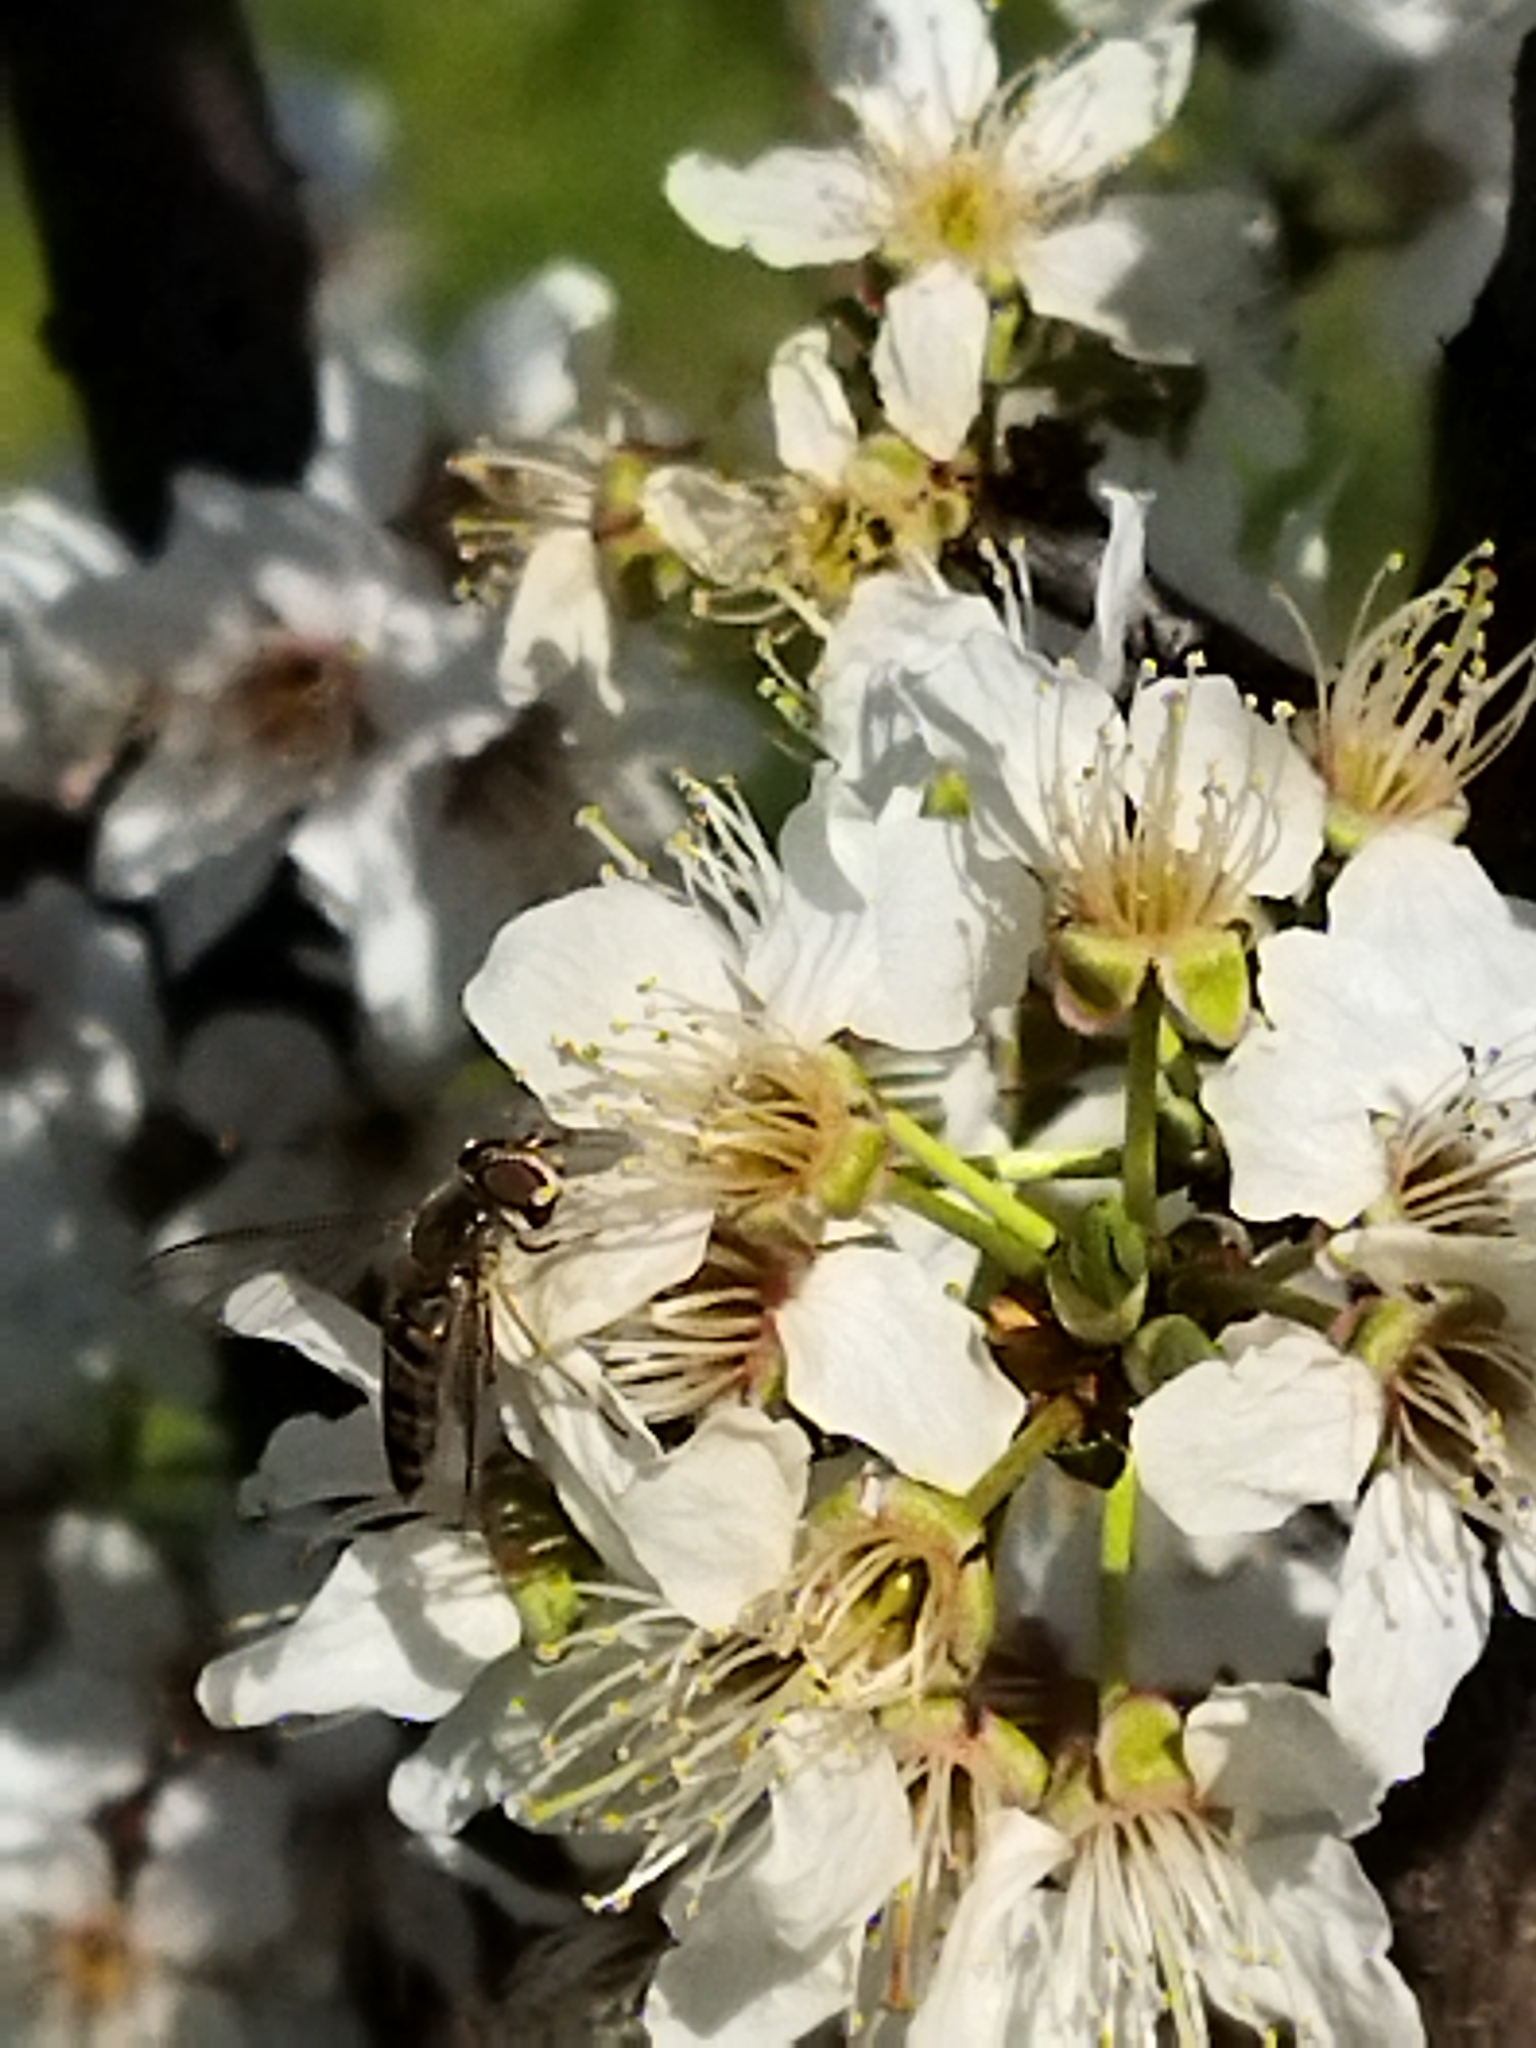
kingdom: Animalia
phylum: Arthropoda
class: Insecta
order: Diptera
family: Syrphidae
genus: Episyrphus
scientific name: Episyrphus balteatus
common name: Marmalade hoverfly
